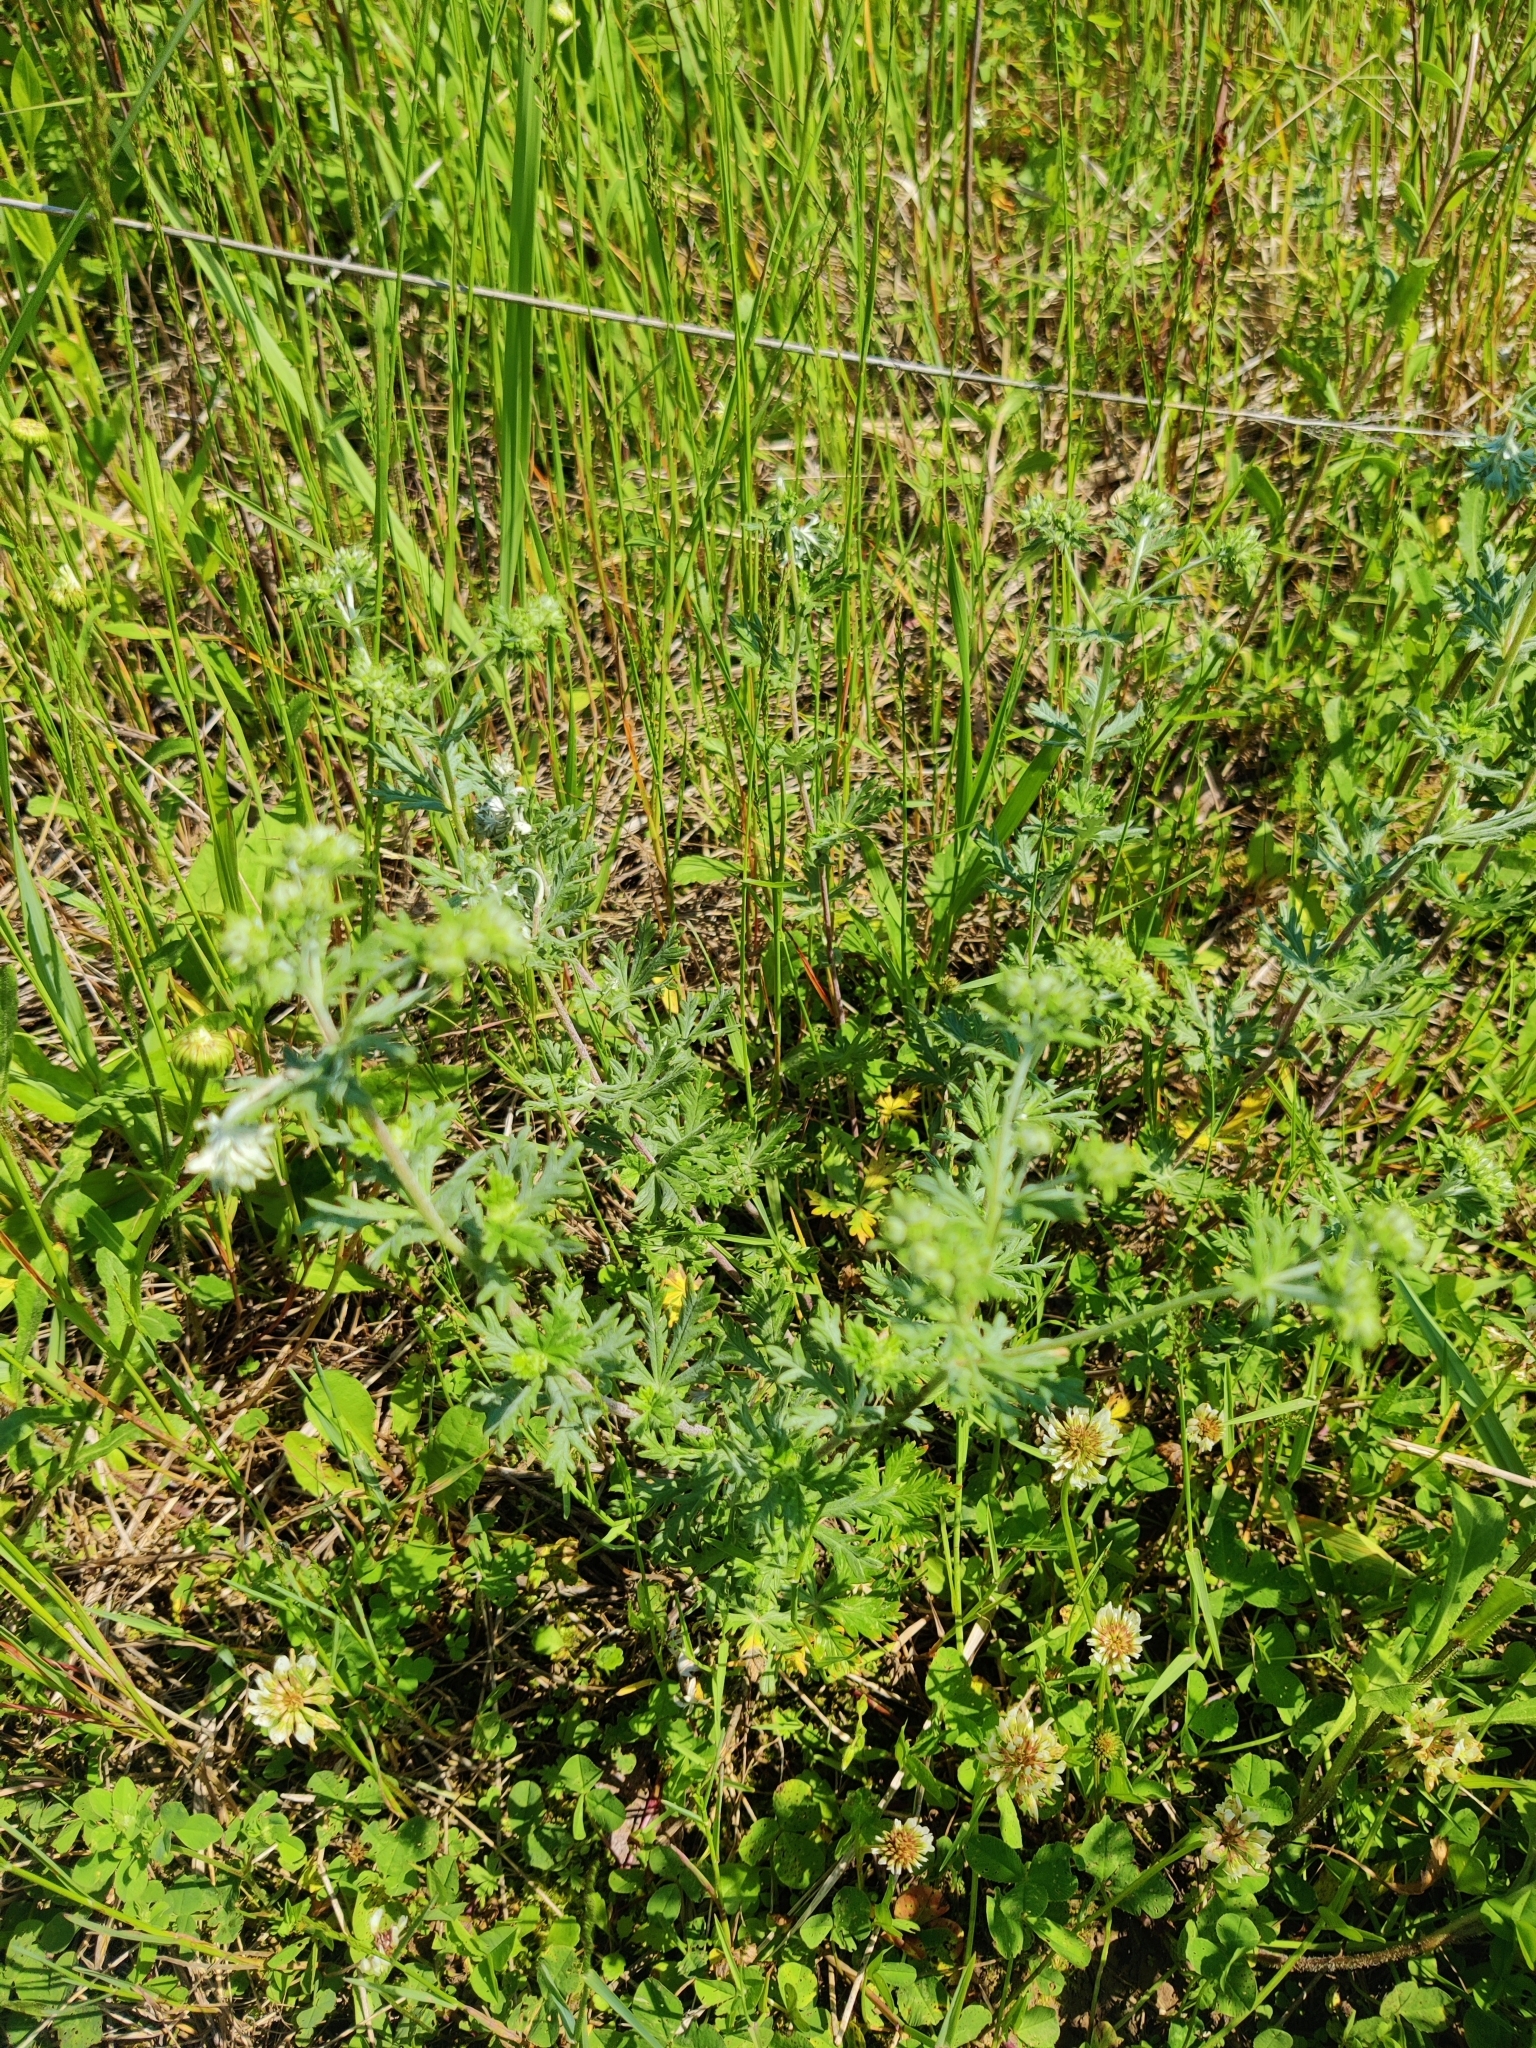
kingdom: Plantae
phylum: Tracheophyta
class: Magnoliopsida
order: Rosales
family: Rosaceae
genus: Potentilla
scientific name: Potentilla argentea
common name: Hoary cinquefoil
